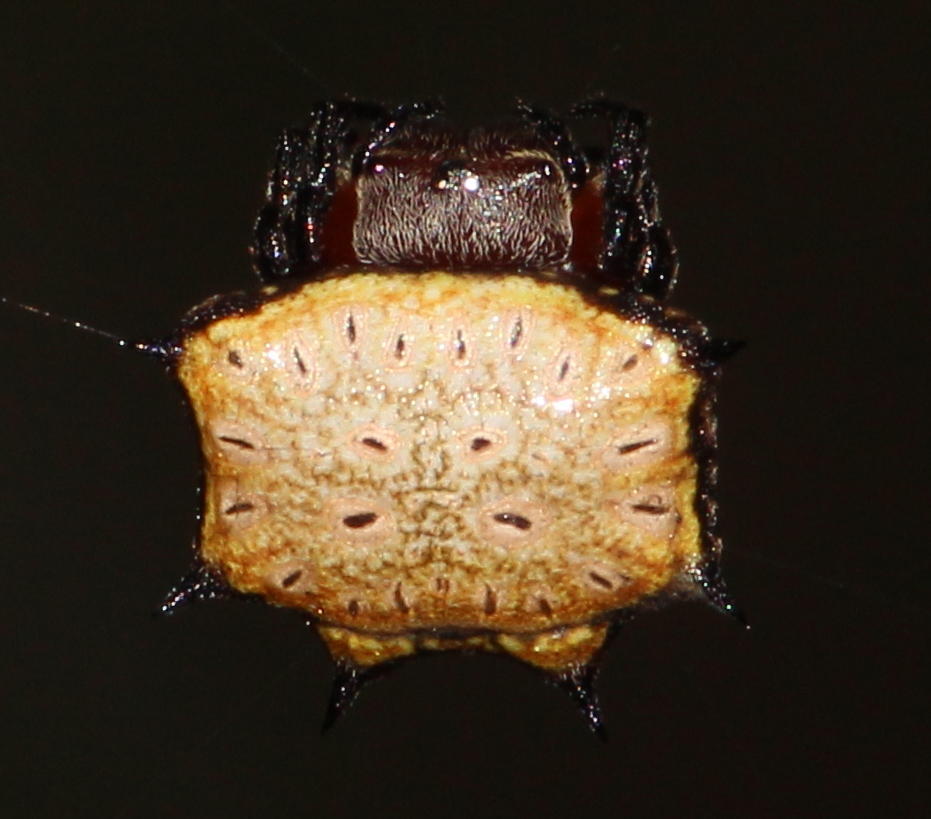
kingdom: Animalia
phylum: Arthropoda
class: Arachnida
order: Araneae
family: Araneidae
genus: Isoxya
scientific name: Isoxya tabulata
